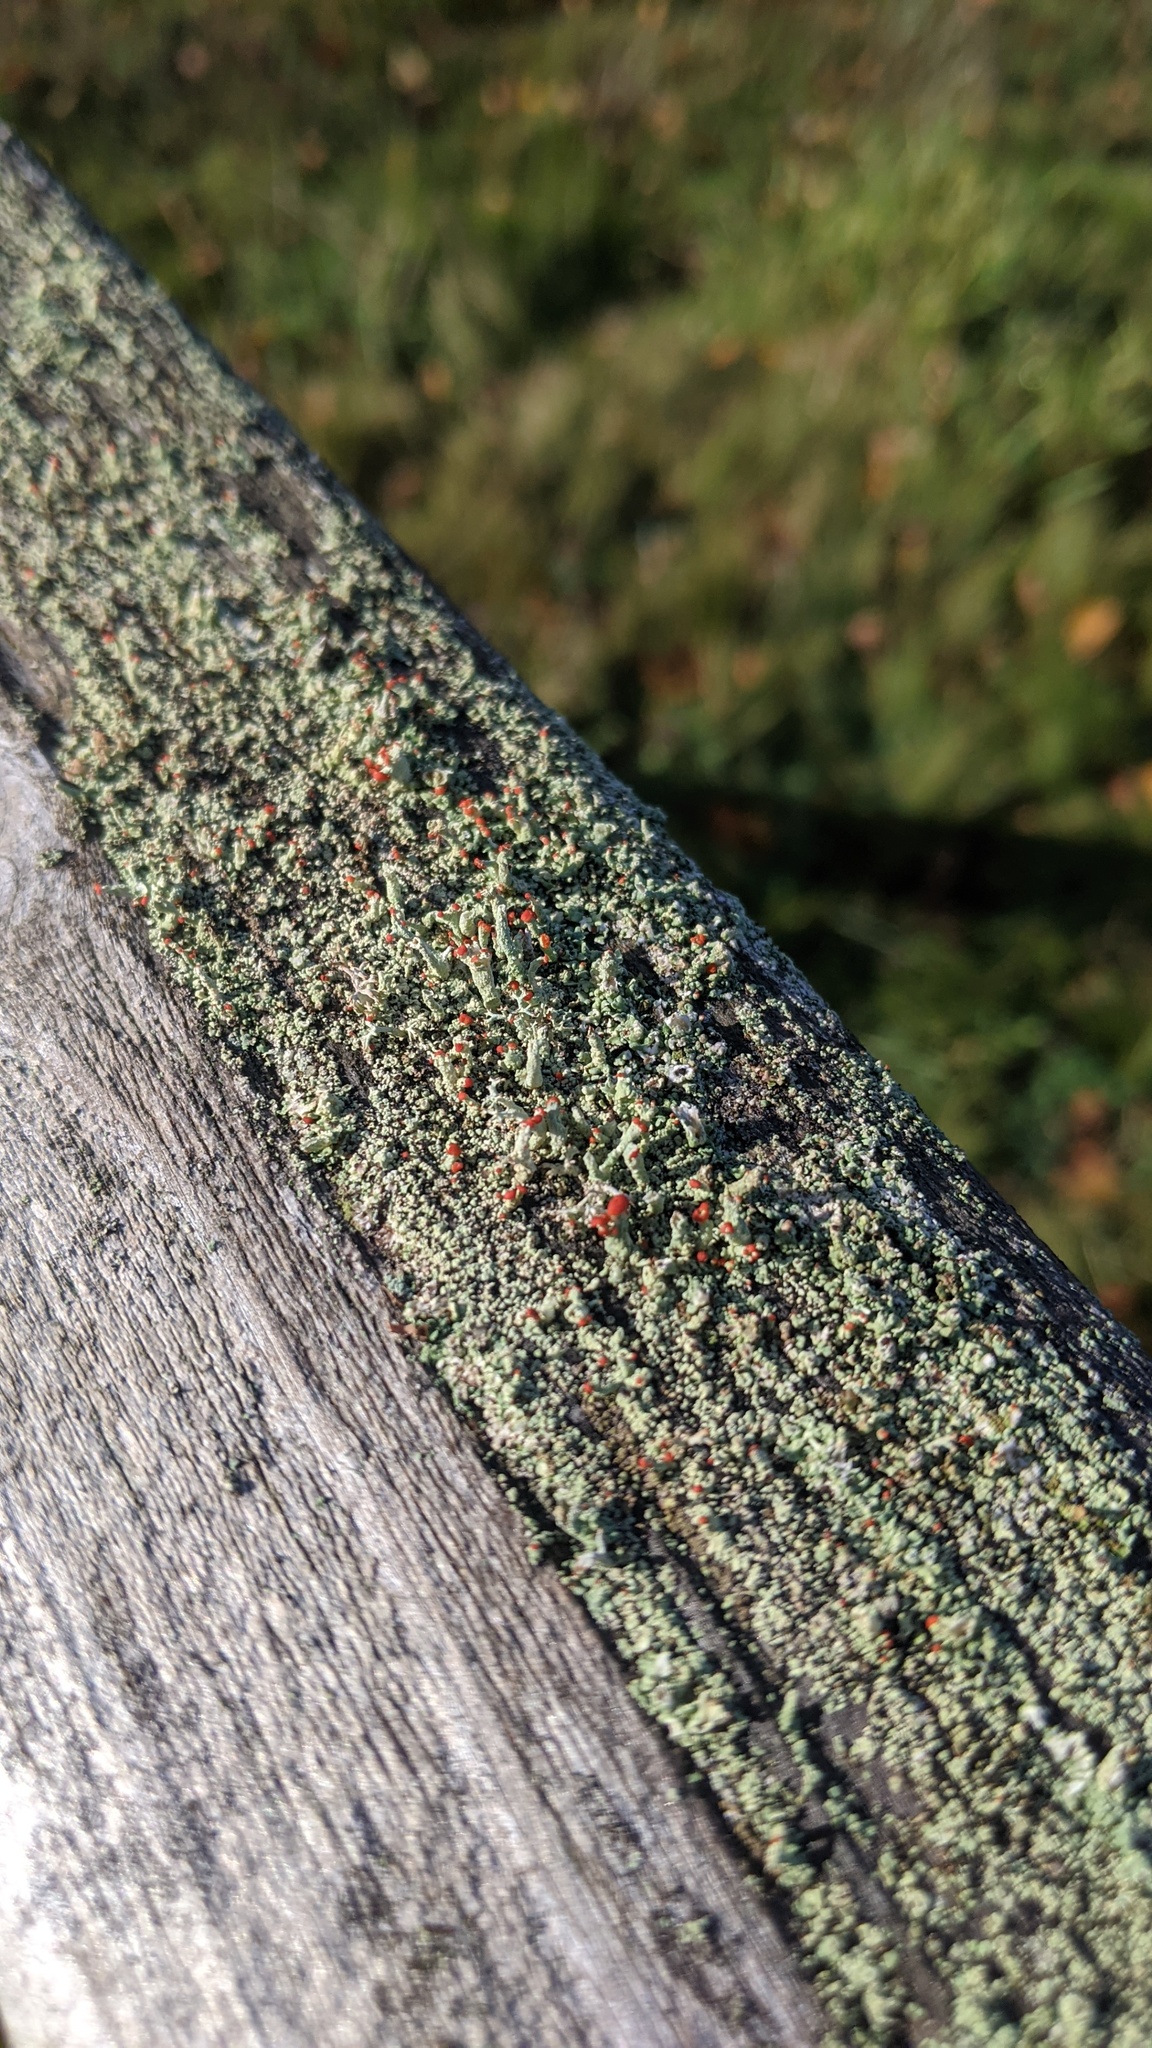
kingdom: Fungi
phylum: Ascomycota
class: Lecanoromycetes
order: Lecanorales
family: Cladoniaceae
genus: Cladonia
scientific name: Cladonia cristatella
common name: British soldier lichen
